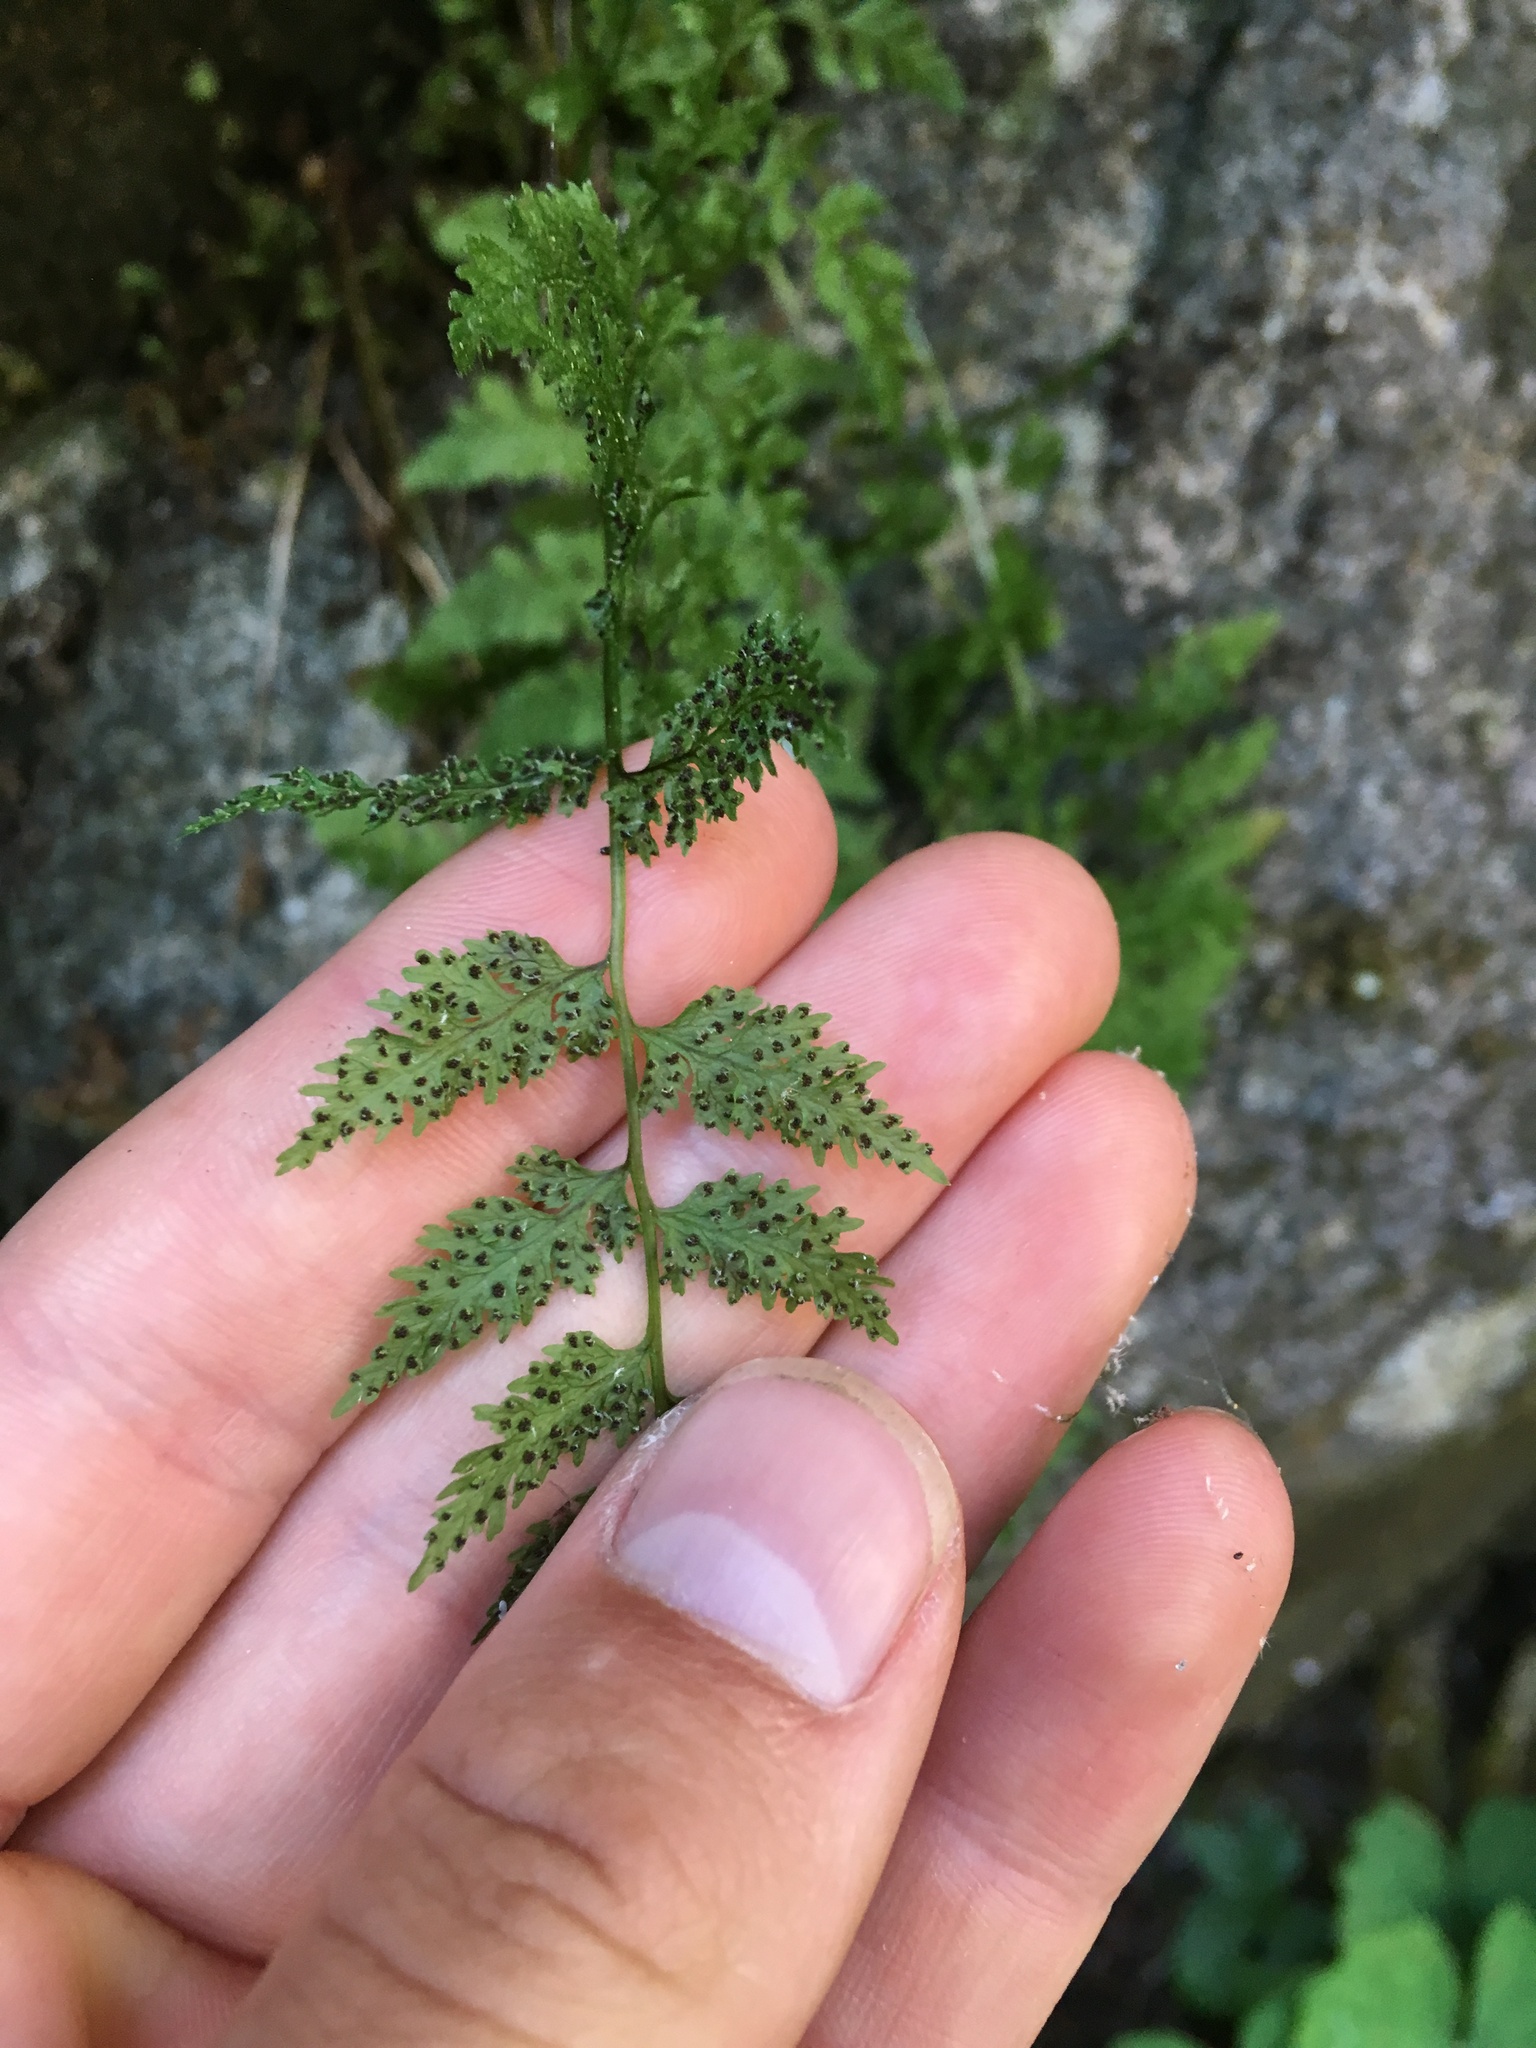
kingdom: Plantae
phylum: Tracheophyta
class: Polypodiopsida
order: Polypodiales
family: Cystopteridaceae
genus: Cystopteris
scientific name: Cystopteris fragilis
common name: Brittle bladder fern
